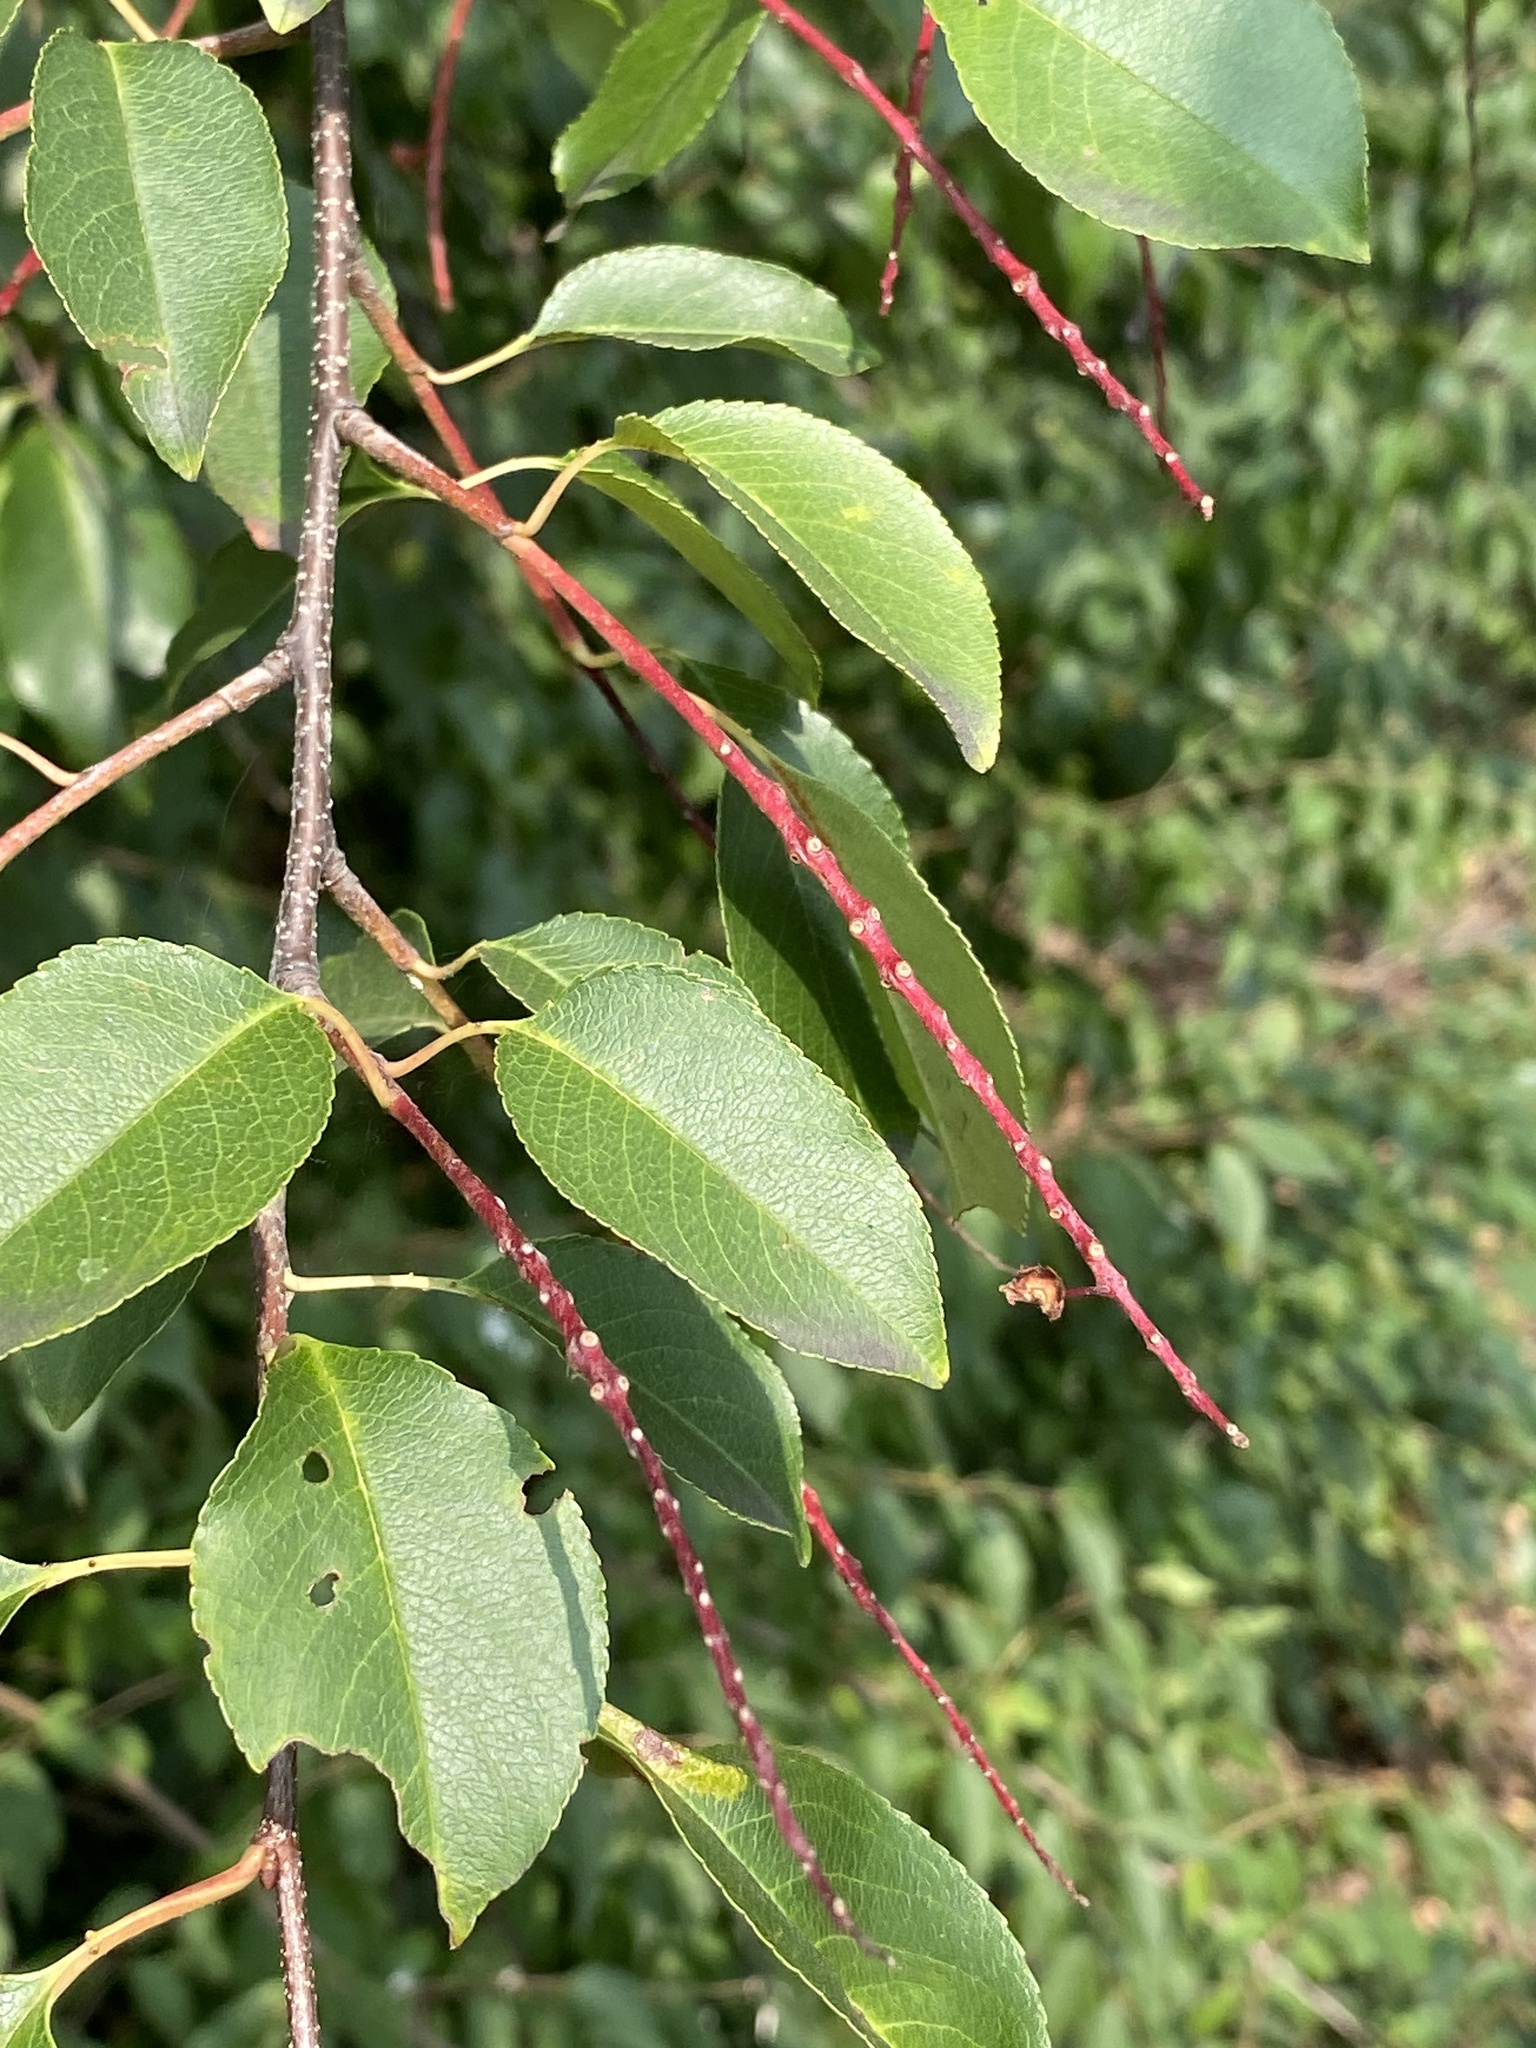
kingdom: Plantae
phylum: Tracheophyta
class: Magnoliopsida
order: Rosales
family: Rosaceae
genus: Prunus
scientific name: Prunus serotina
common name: Black cherry
